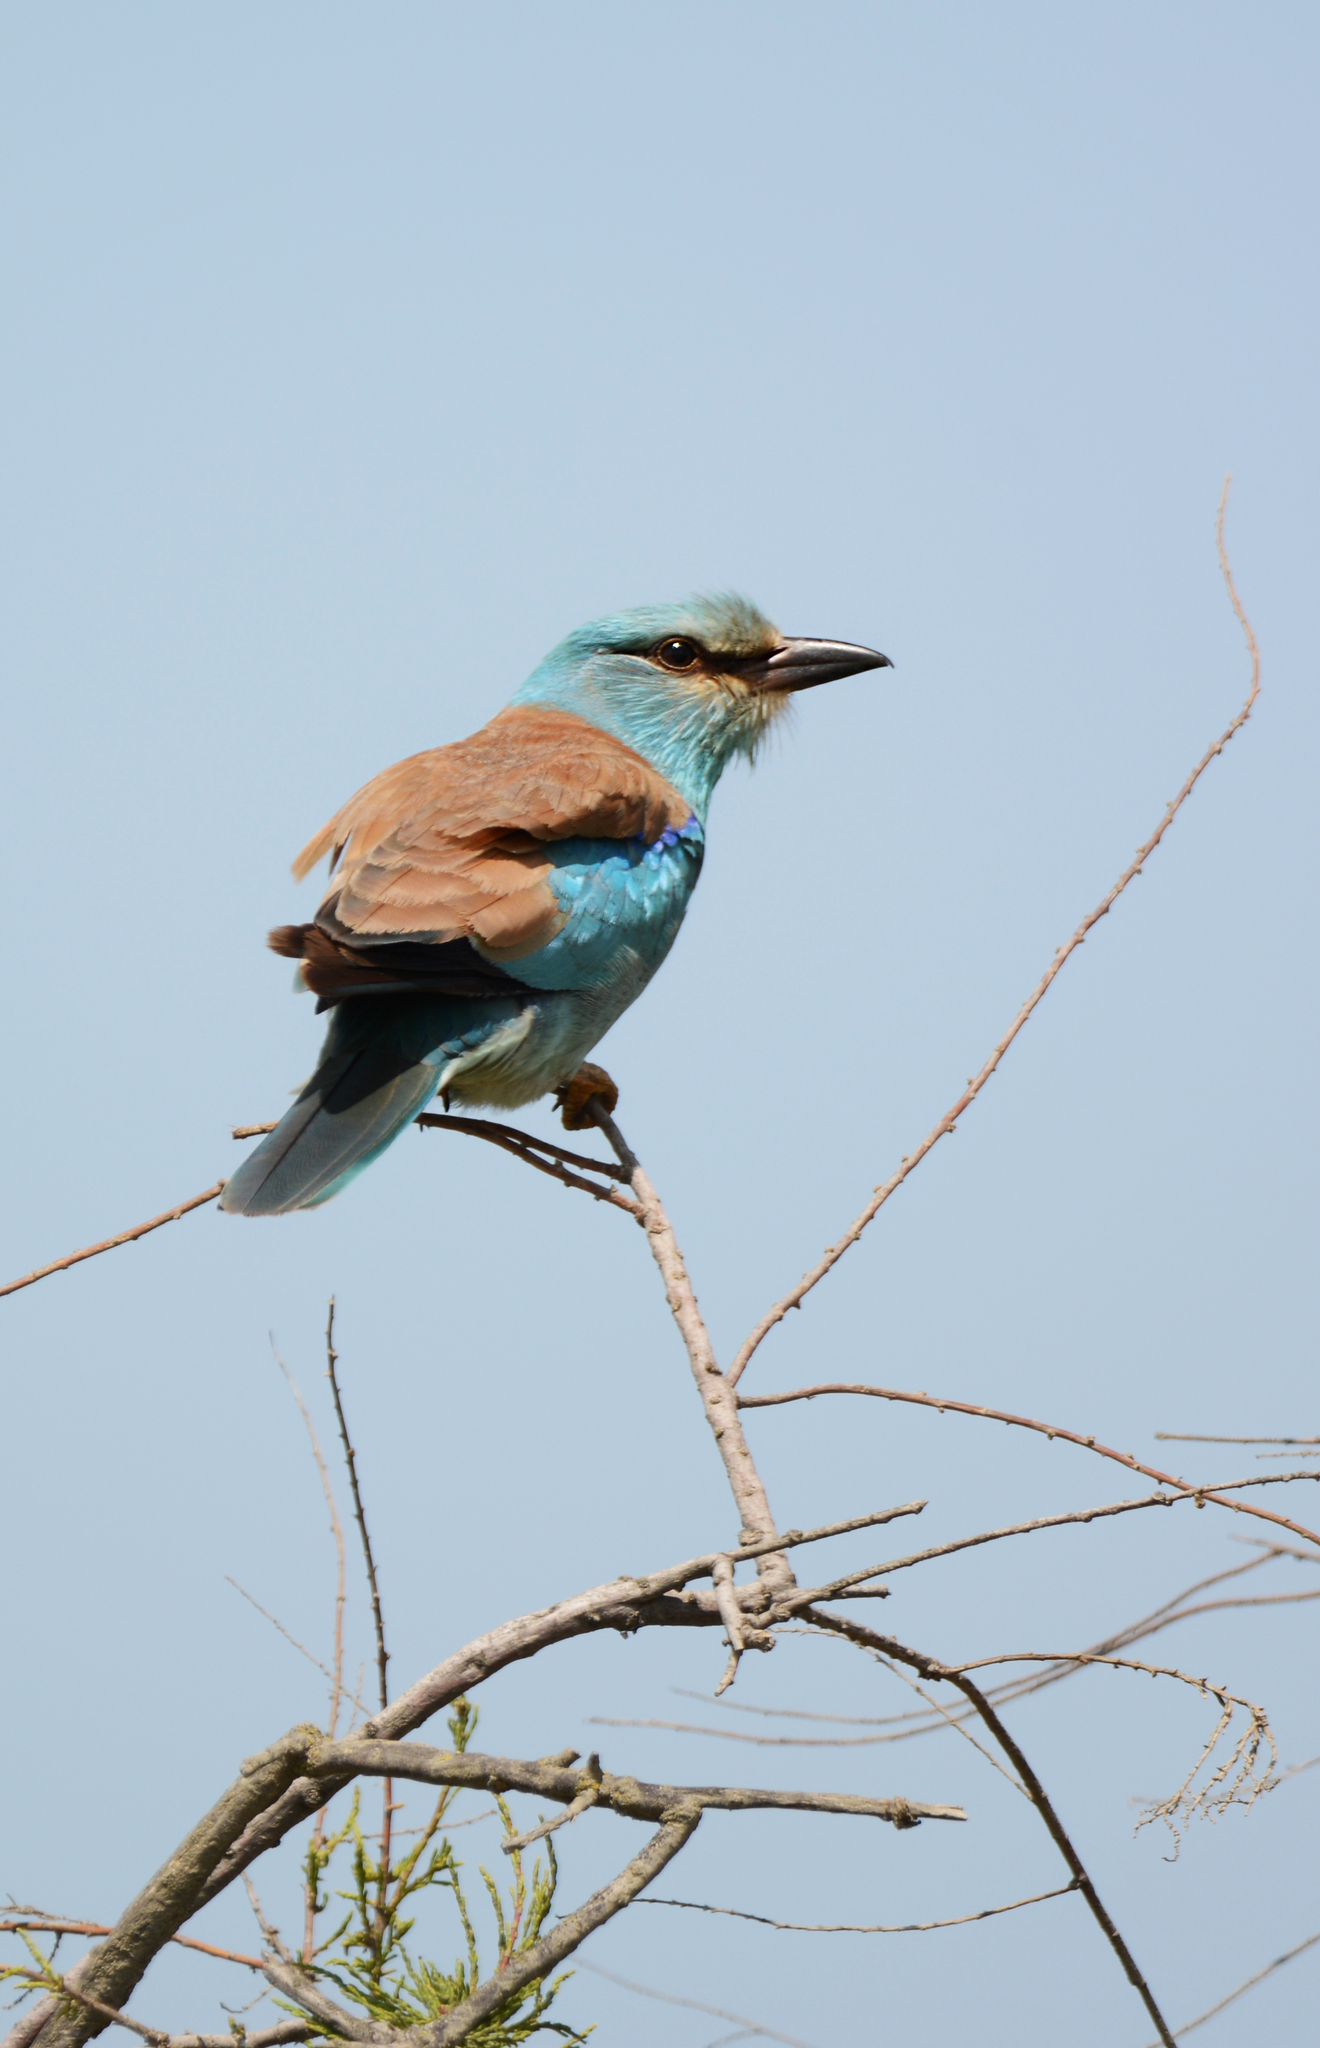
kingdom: Animalia
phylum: Chordata
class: Aves
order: Coraciiformes
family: Coraciidae
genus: Coracias
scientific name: Coracias garrulus
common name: European roller
